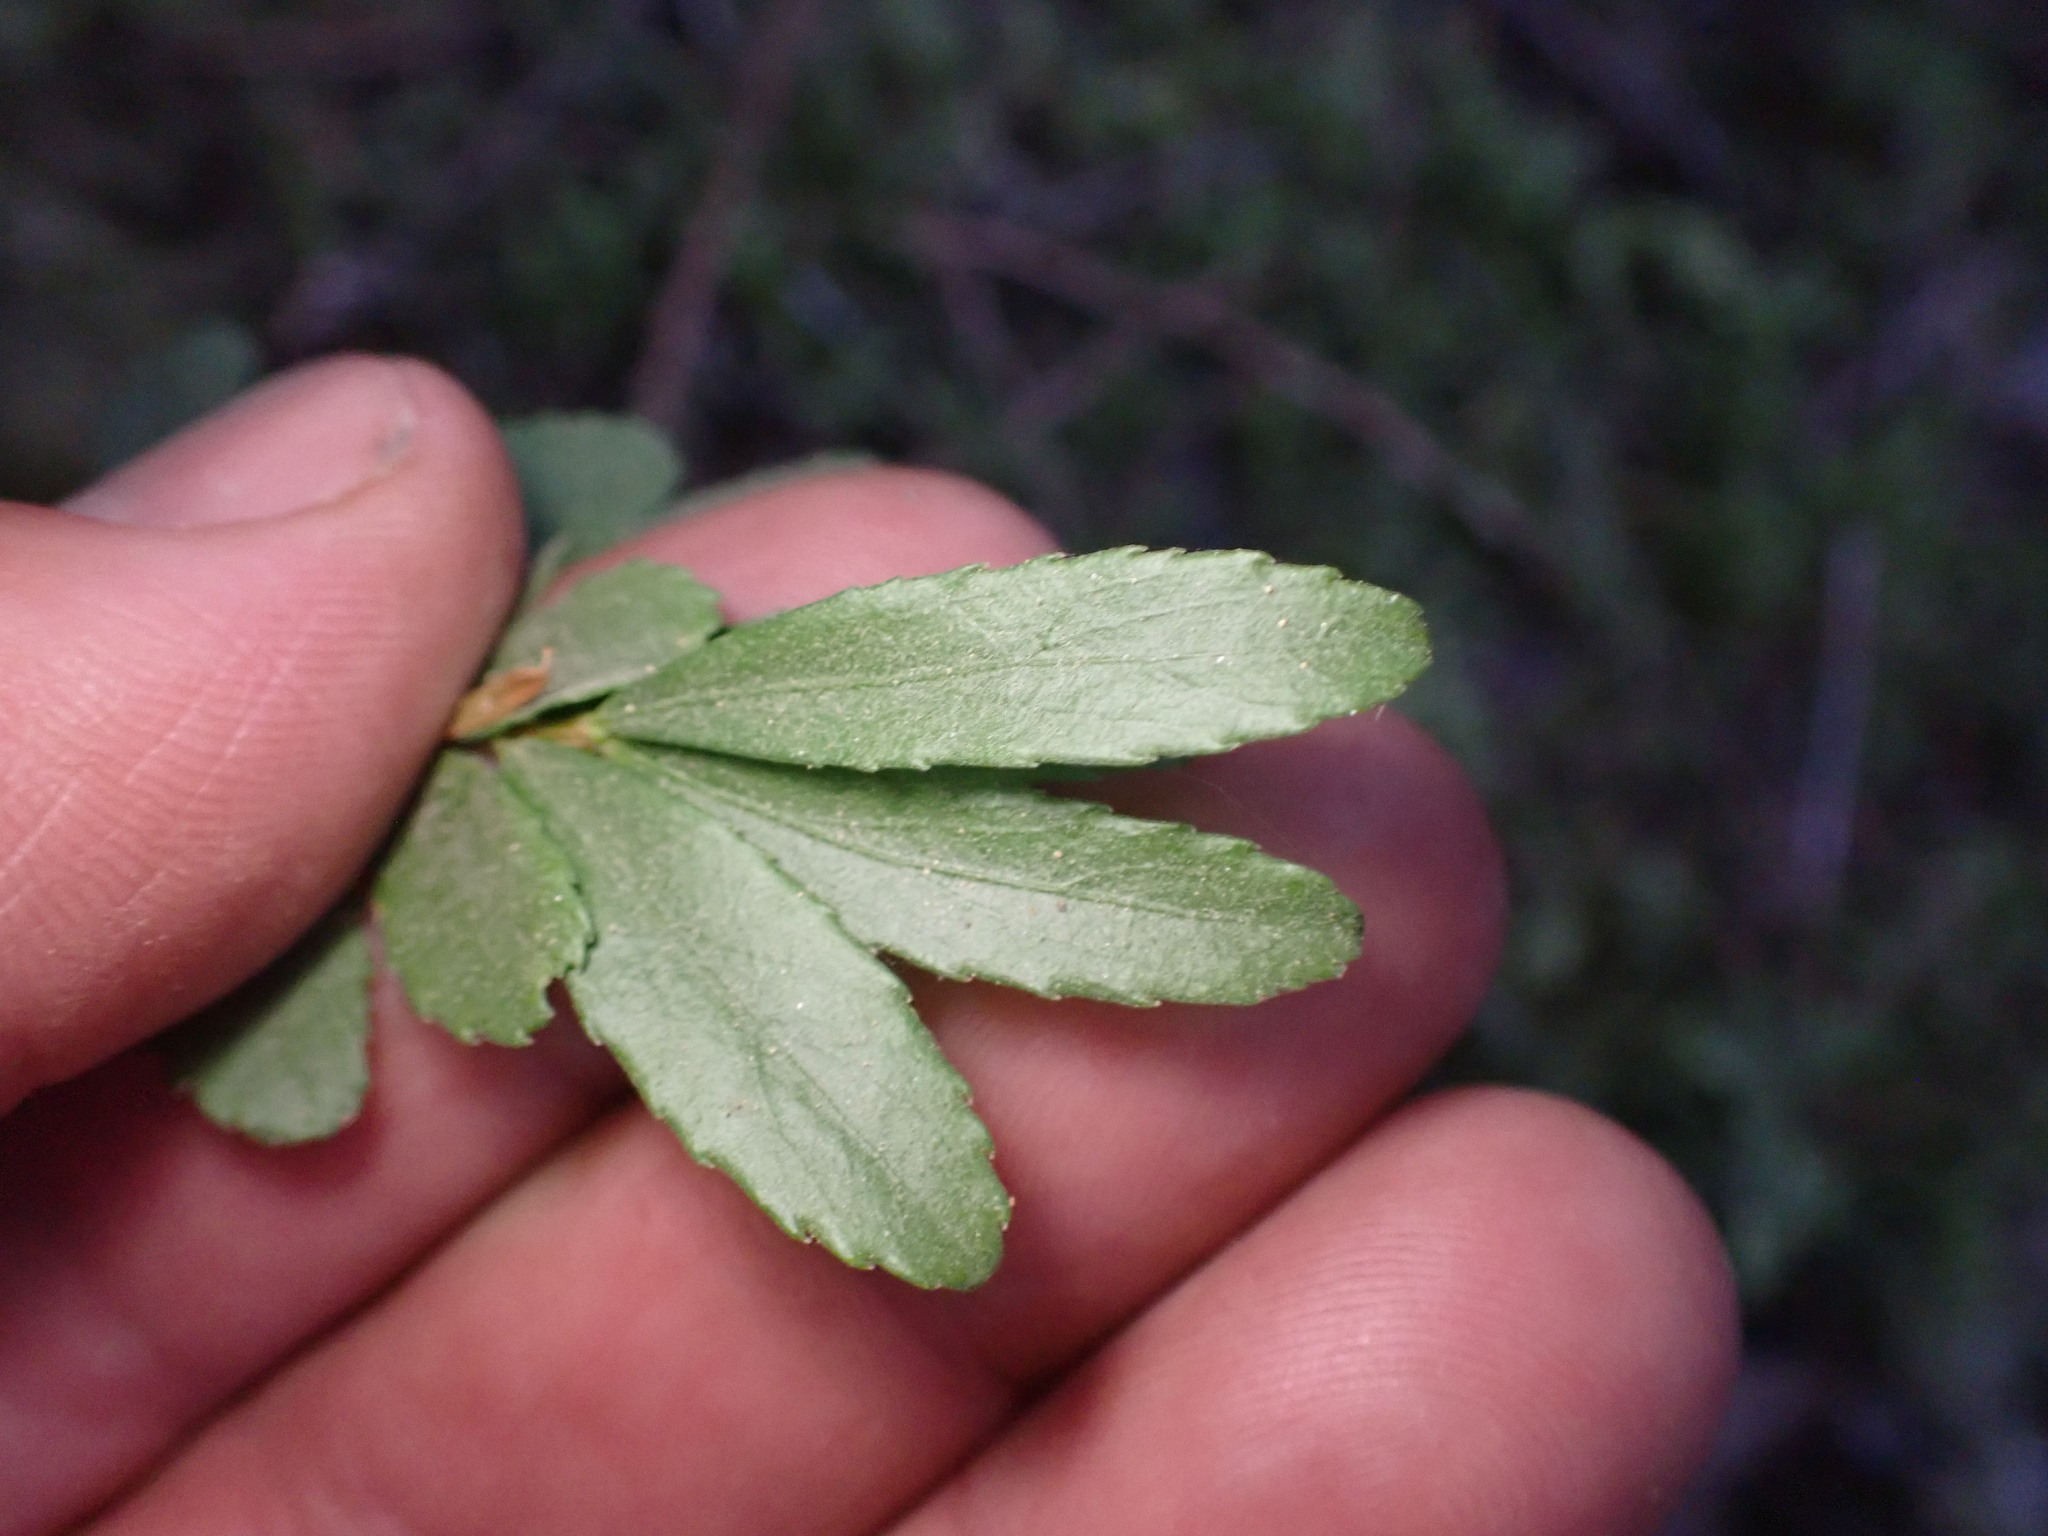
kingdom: Plantae
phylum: Tracheophyta
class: Magnoliopsida
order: Celastrales
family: Celastraceae
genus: Paxistima
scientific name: Paxistima myrsinites
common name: Mountain-lover
